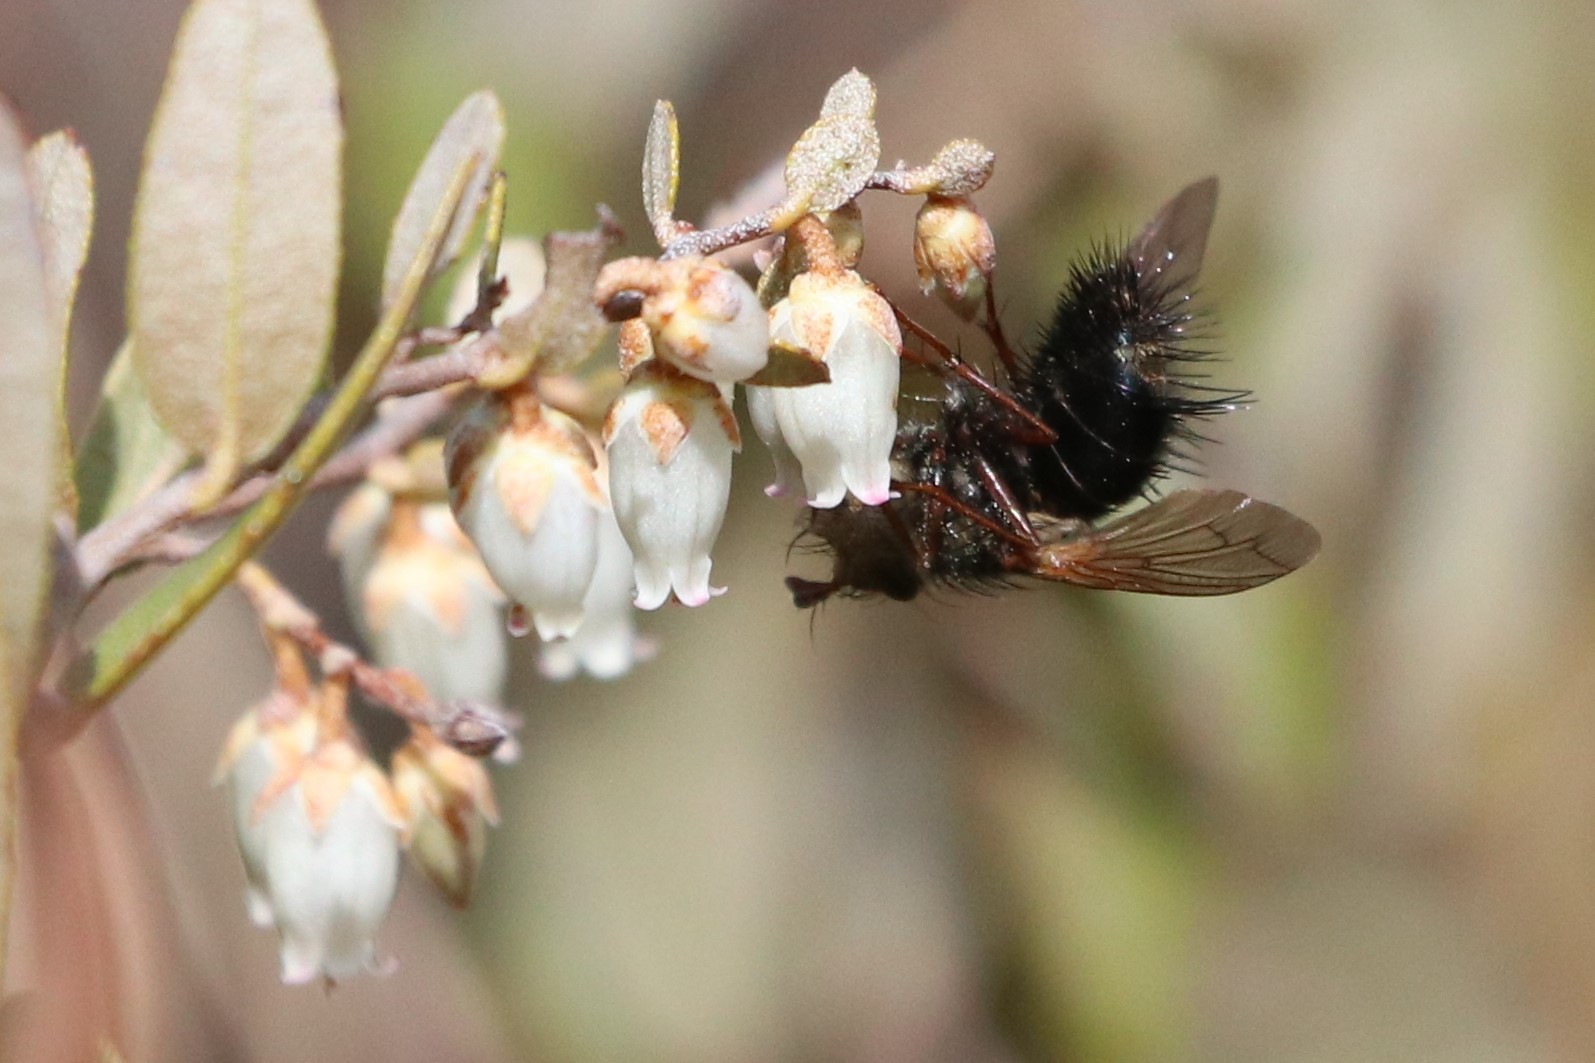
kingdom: Animalia
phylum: Arthropoda
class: Insecta
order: Diptera
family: Tachinidae
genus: Epalpus
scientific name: Epalpus signifer
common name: Early tachinid fly
